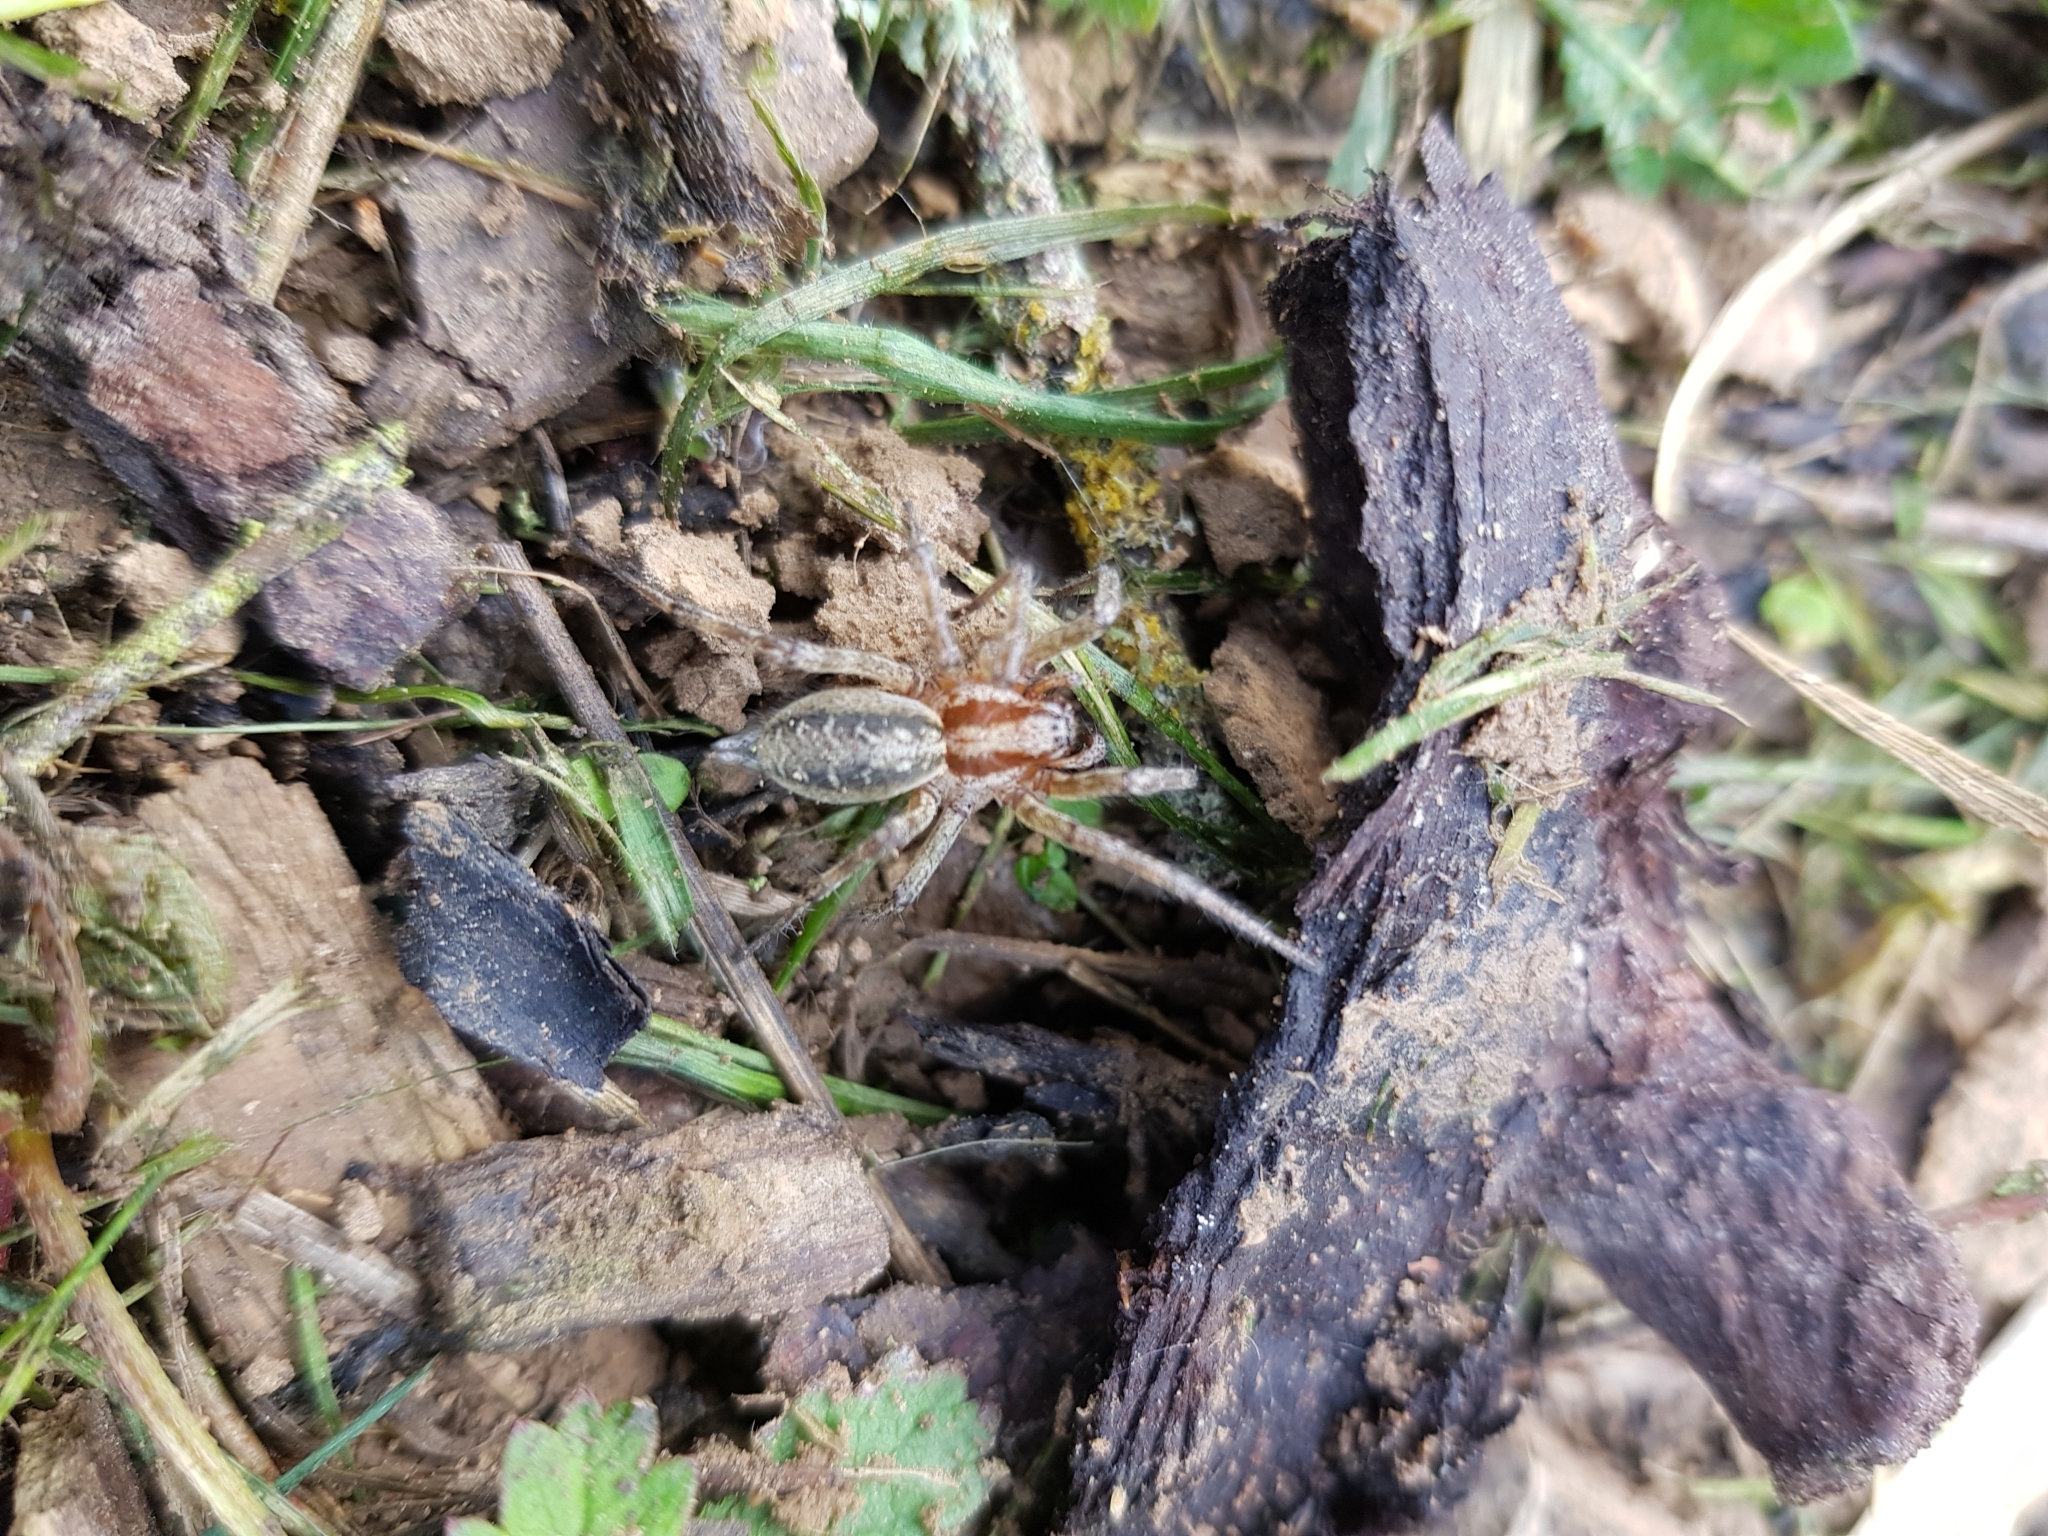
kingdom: Animalia
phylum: Arthropoda
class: Arachnida
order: Araneae
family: Agelenidae
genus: Agelena
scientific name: Agelena labyrinthica
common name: Labyrinth spider
